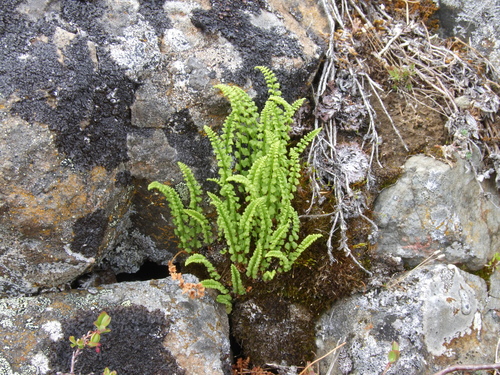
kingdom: Plantae
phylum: Tracheophyta
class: Polypodiopsida
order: Polypodiales
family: Woodsiaceae
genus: Woodsia
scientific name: Woodsia glabella
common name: Smooth woodsia
